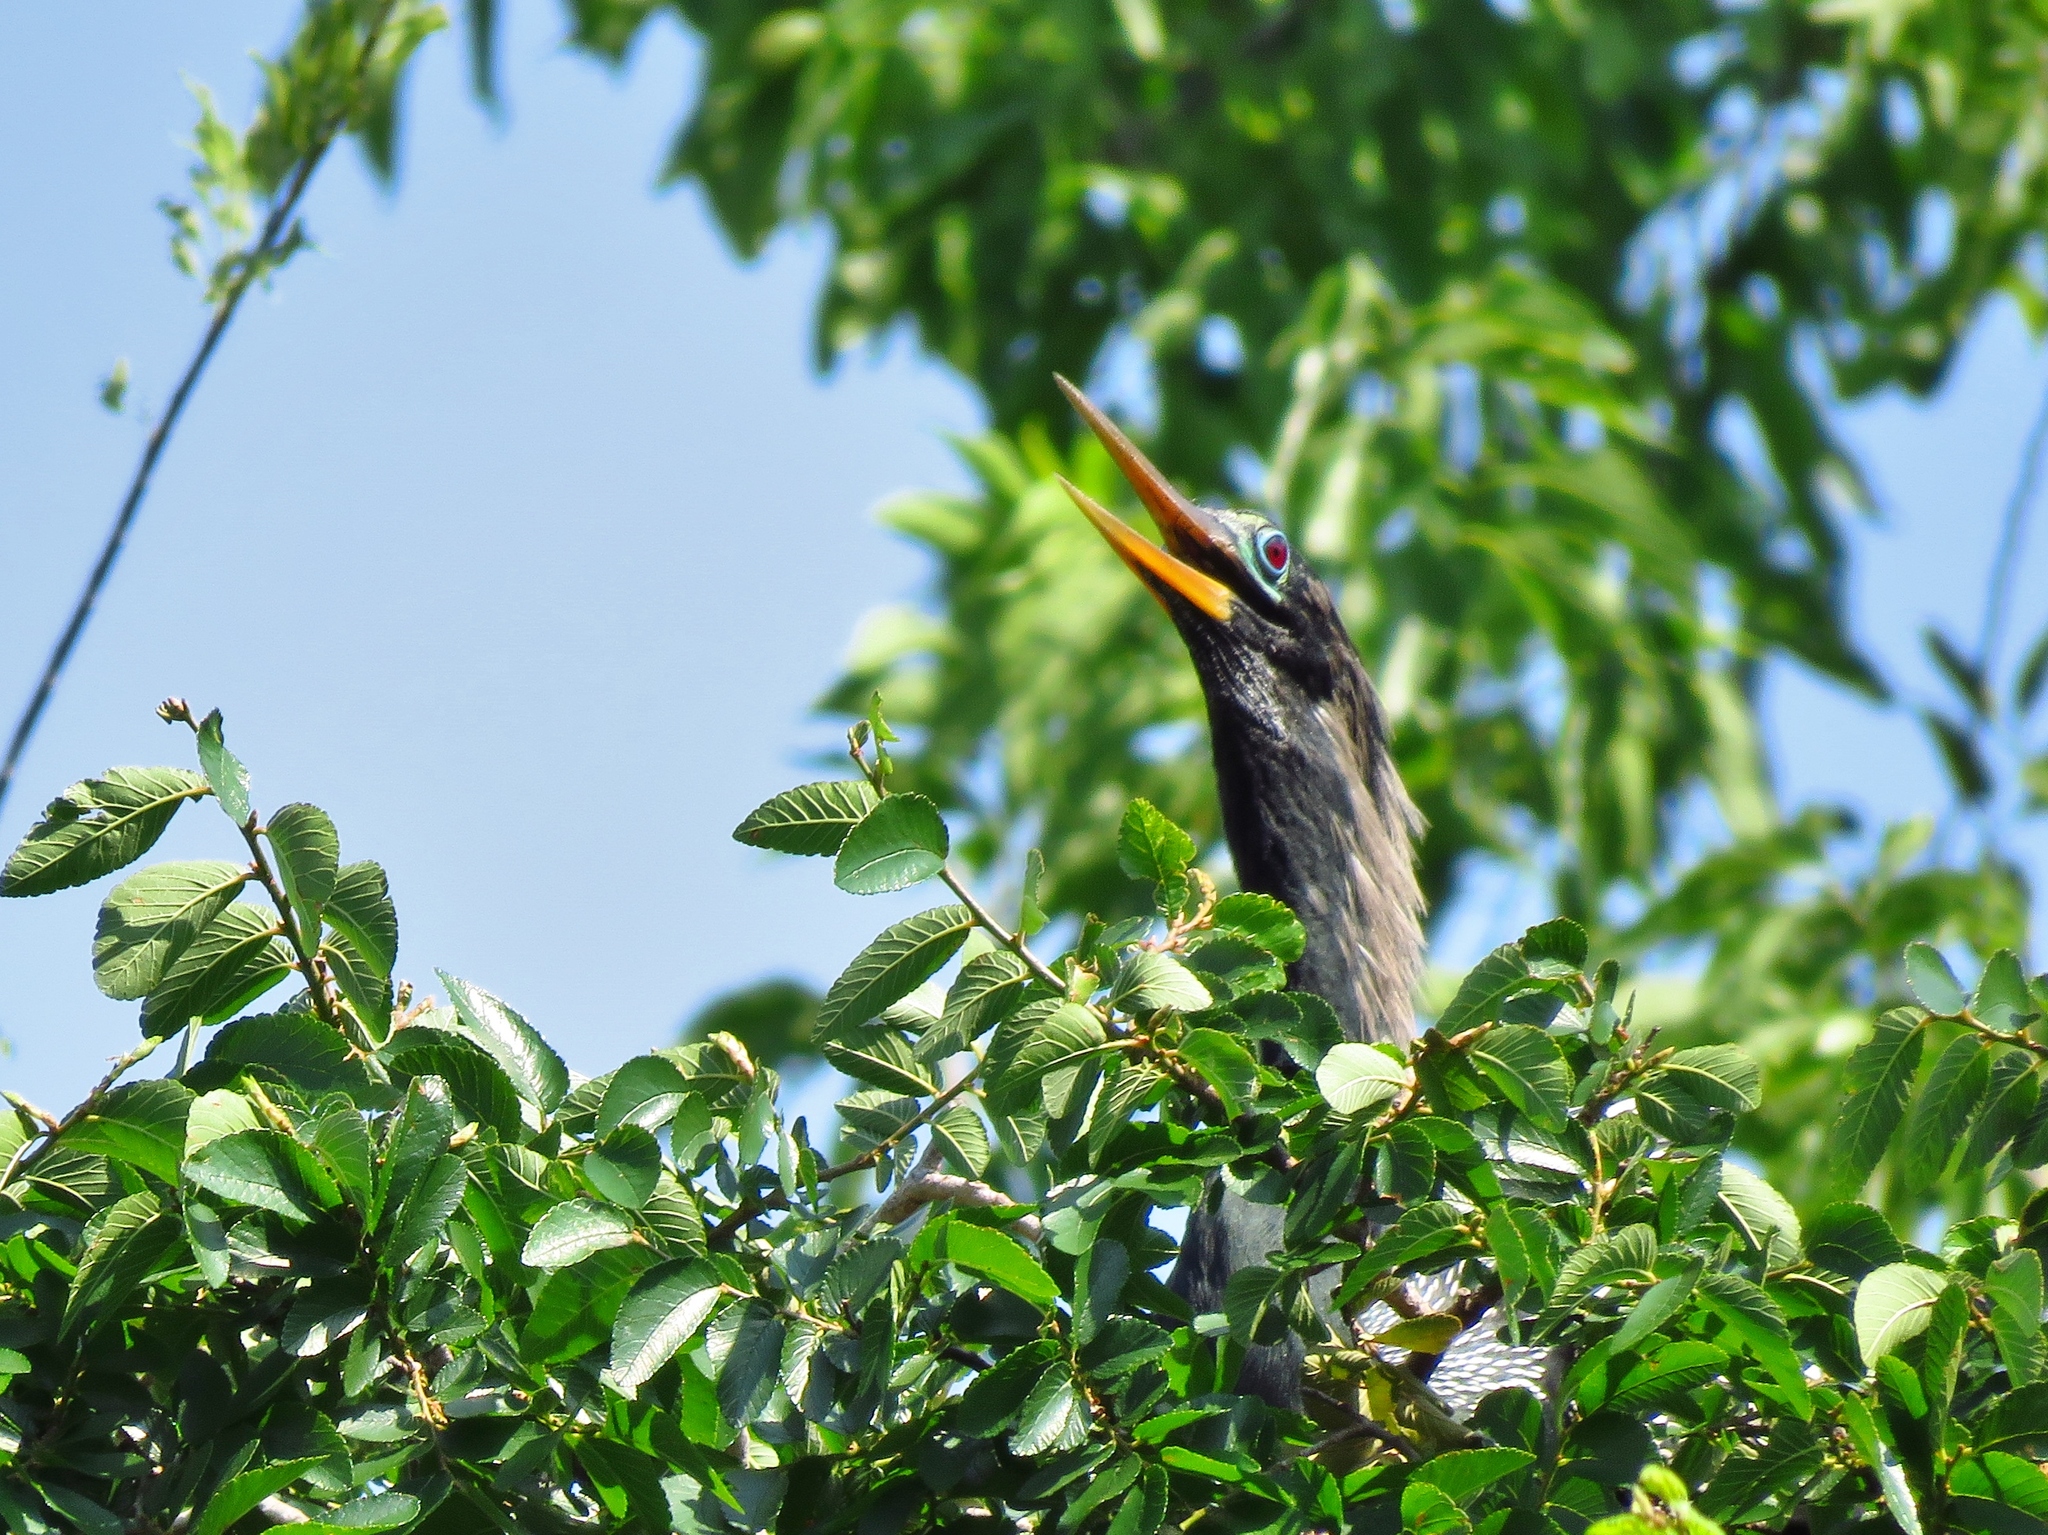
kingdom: Animalia
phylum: Chordata
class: Aves
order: Suliformes
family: Anhingidae
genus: Anhinga
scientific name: Anhinga anhinga
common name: Anhinga
